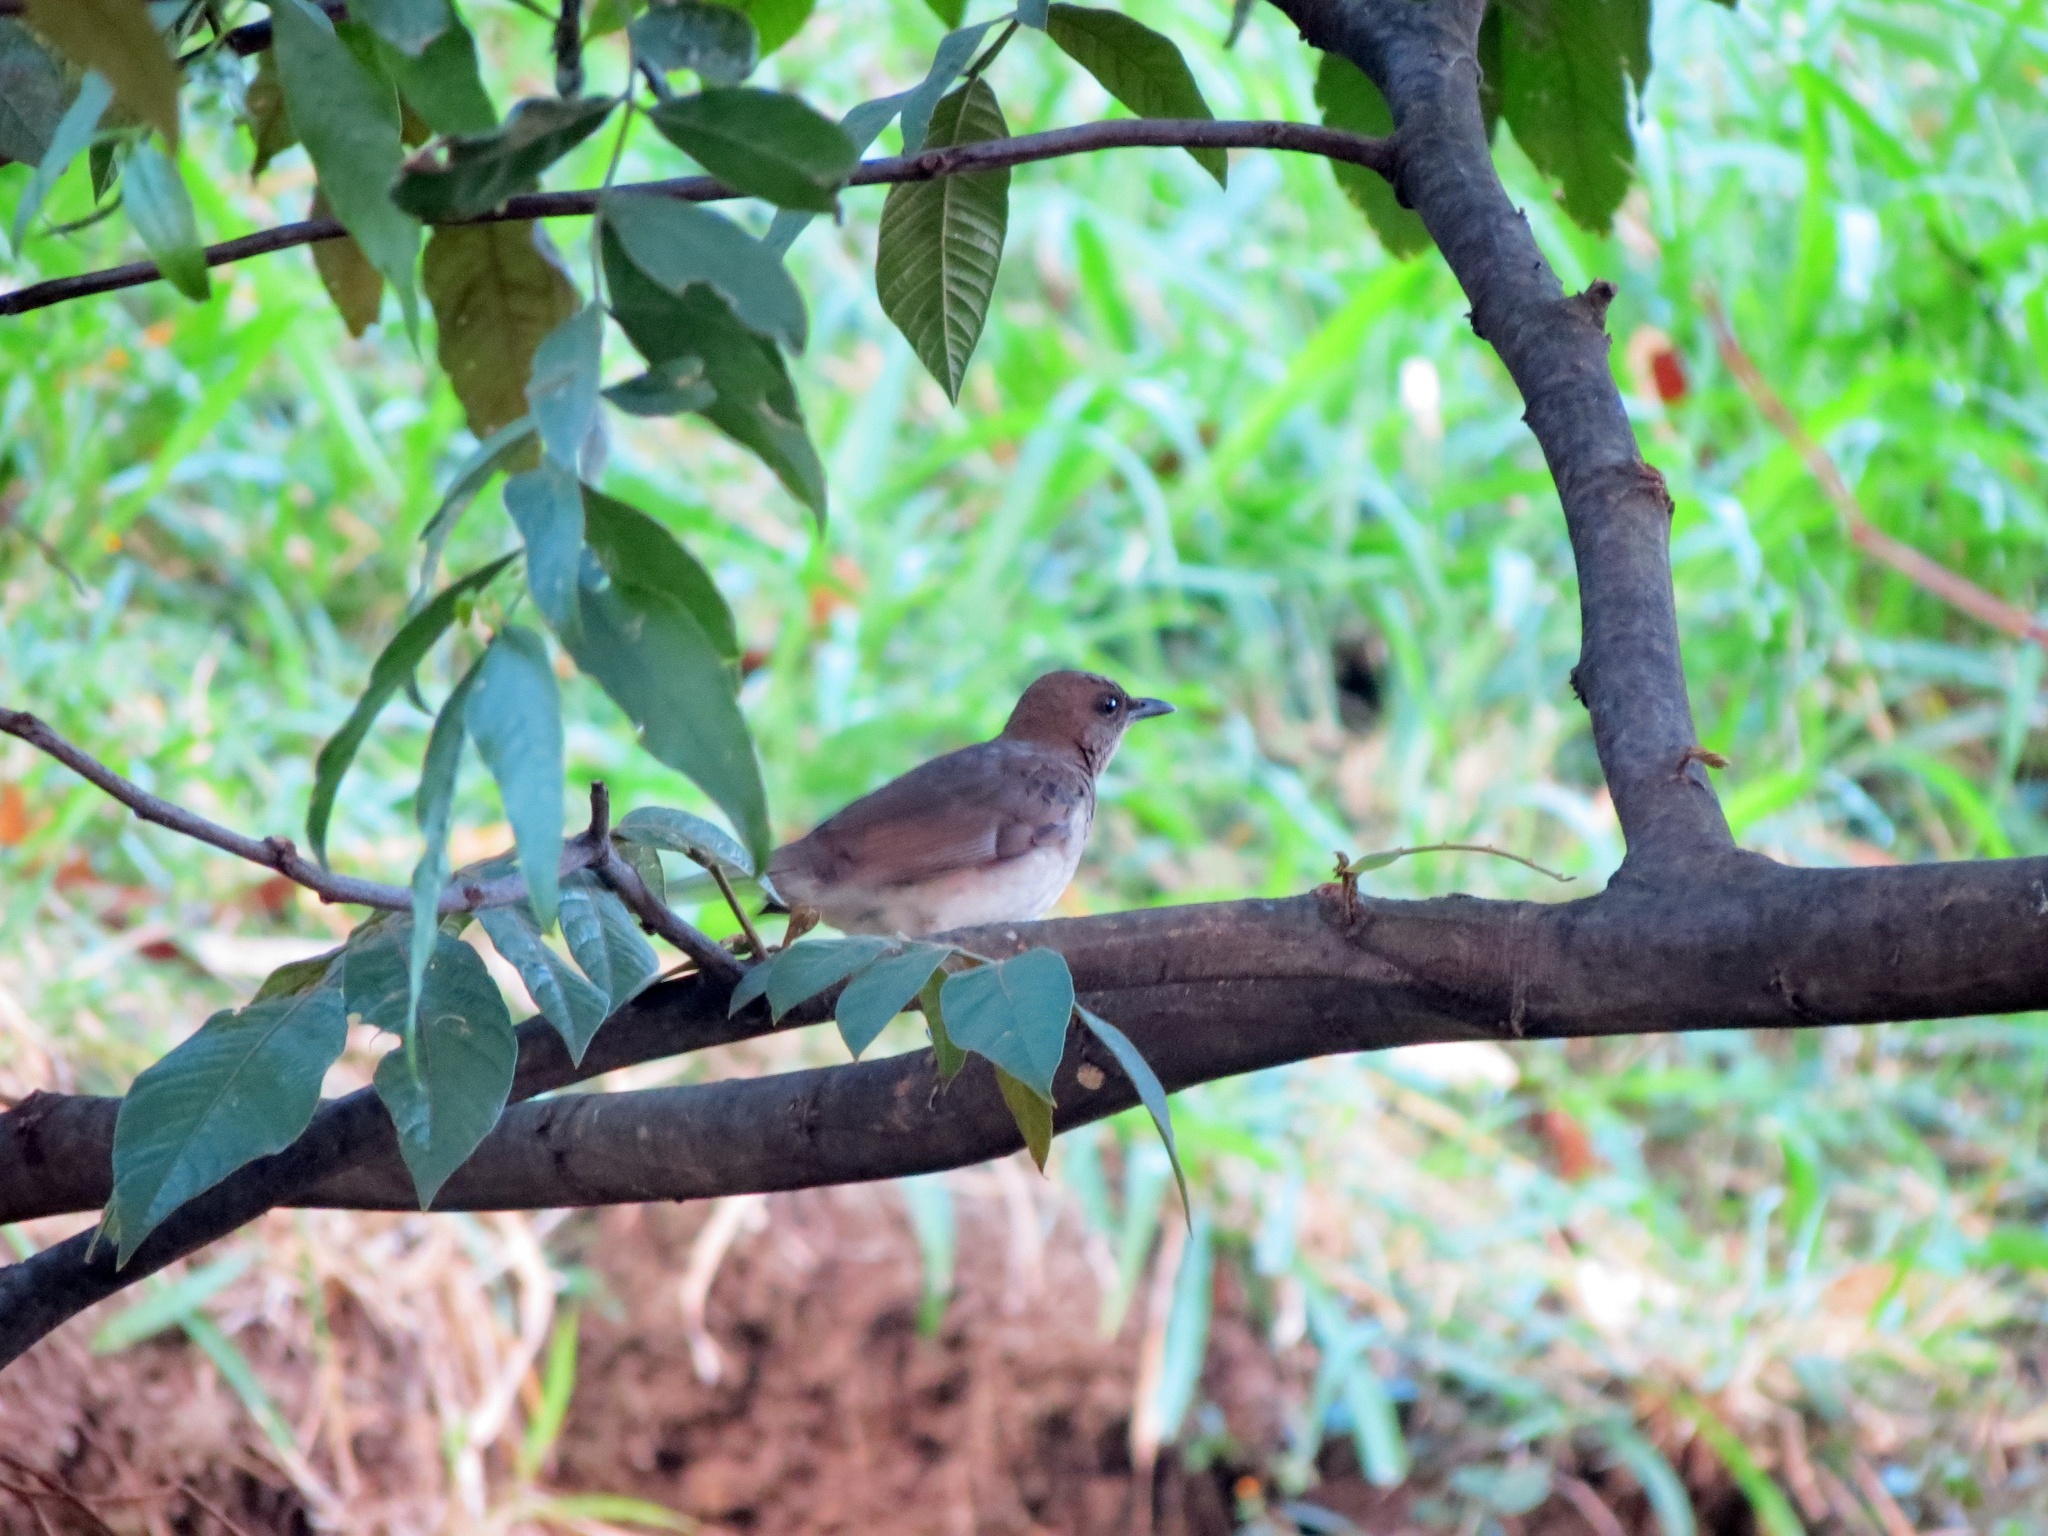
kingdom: Animalia
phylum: Chordata
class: Aves
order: Passeriformes
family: Turdidae
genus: Turdus
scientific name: Turdus ignobilis
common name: Black-billed thrush
